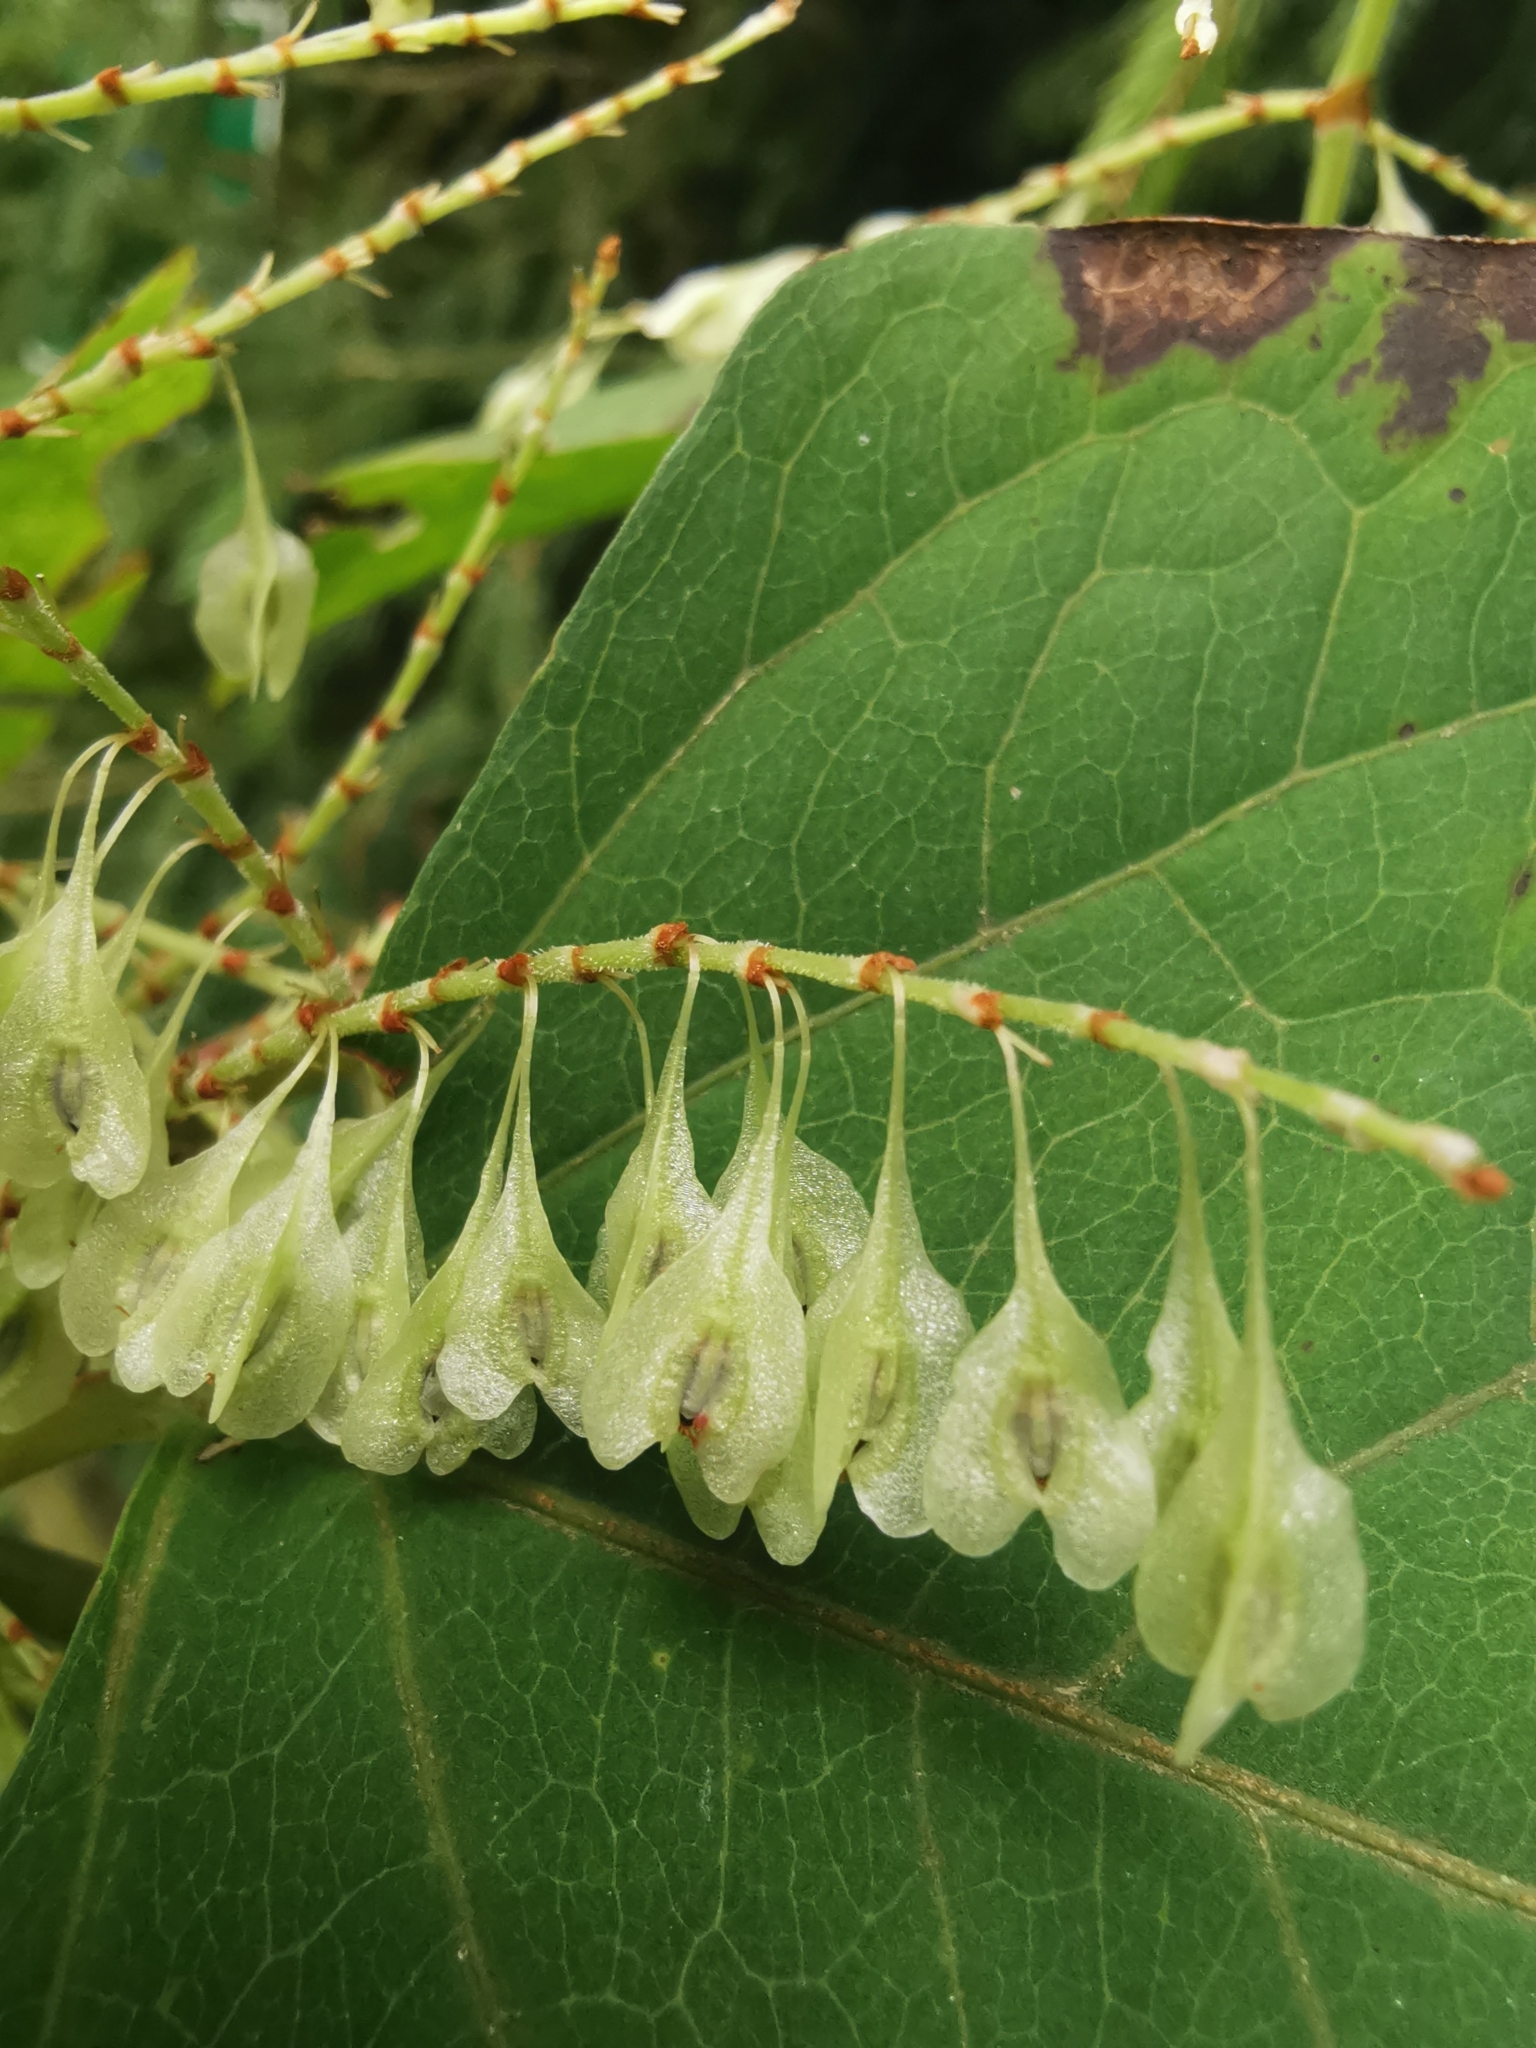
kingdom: Plantae
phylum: Tracheophyta
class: Magnoliopsida
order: Caryophyllales
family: Polygonaceae
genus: Reynoutria
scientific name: Reynoutria bohemica
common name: Bohemian knotweed
